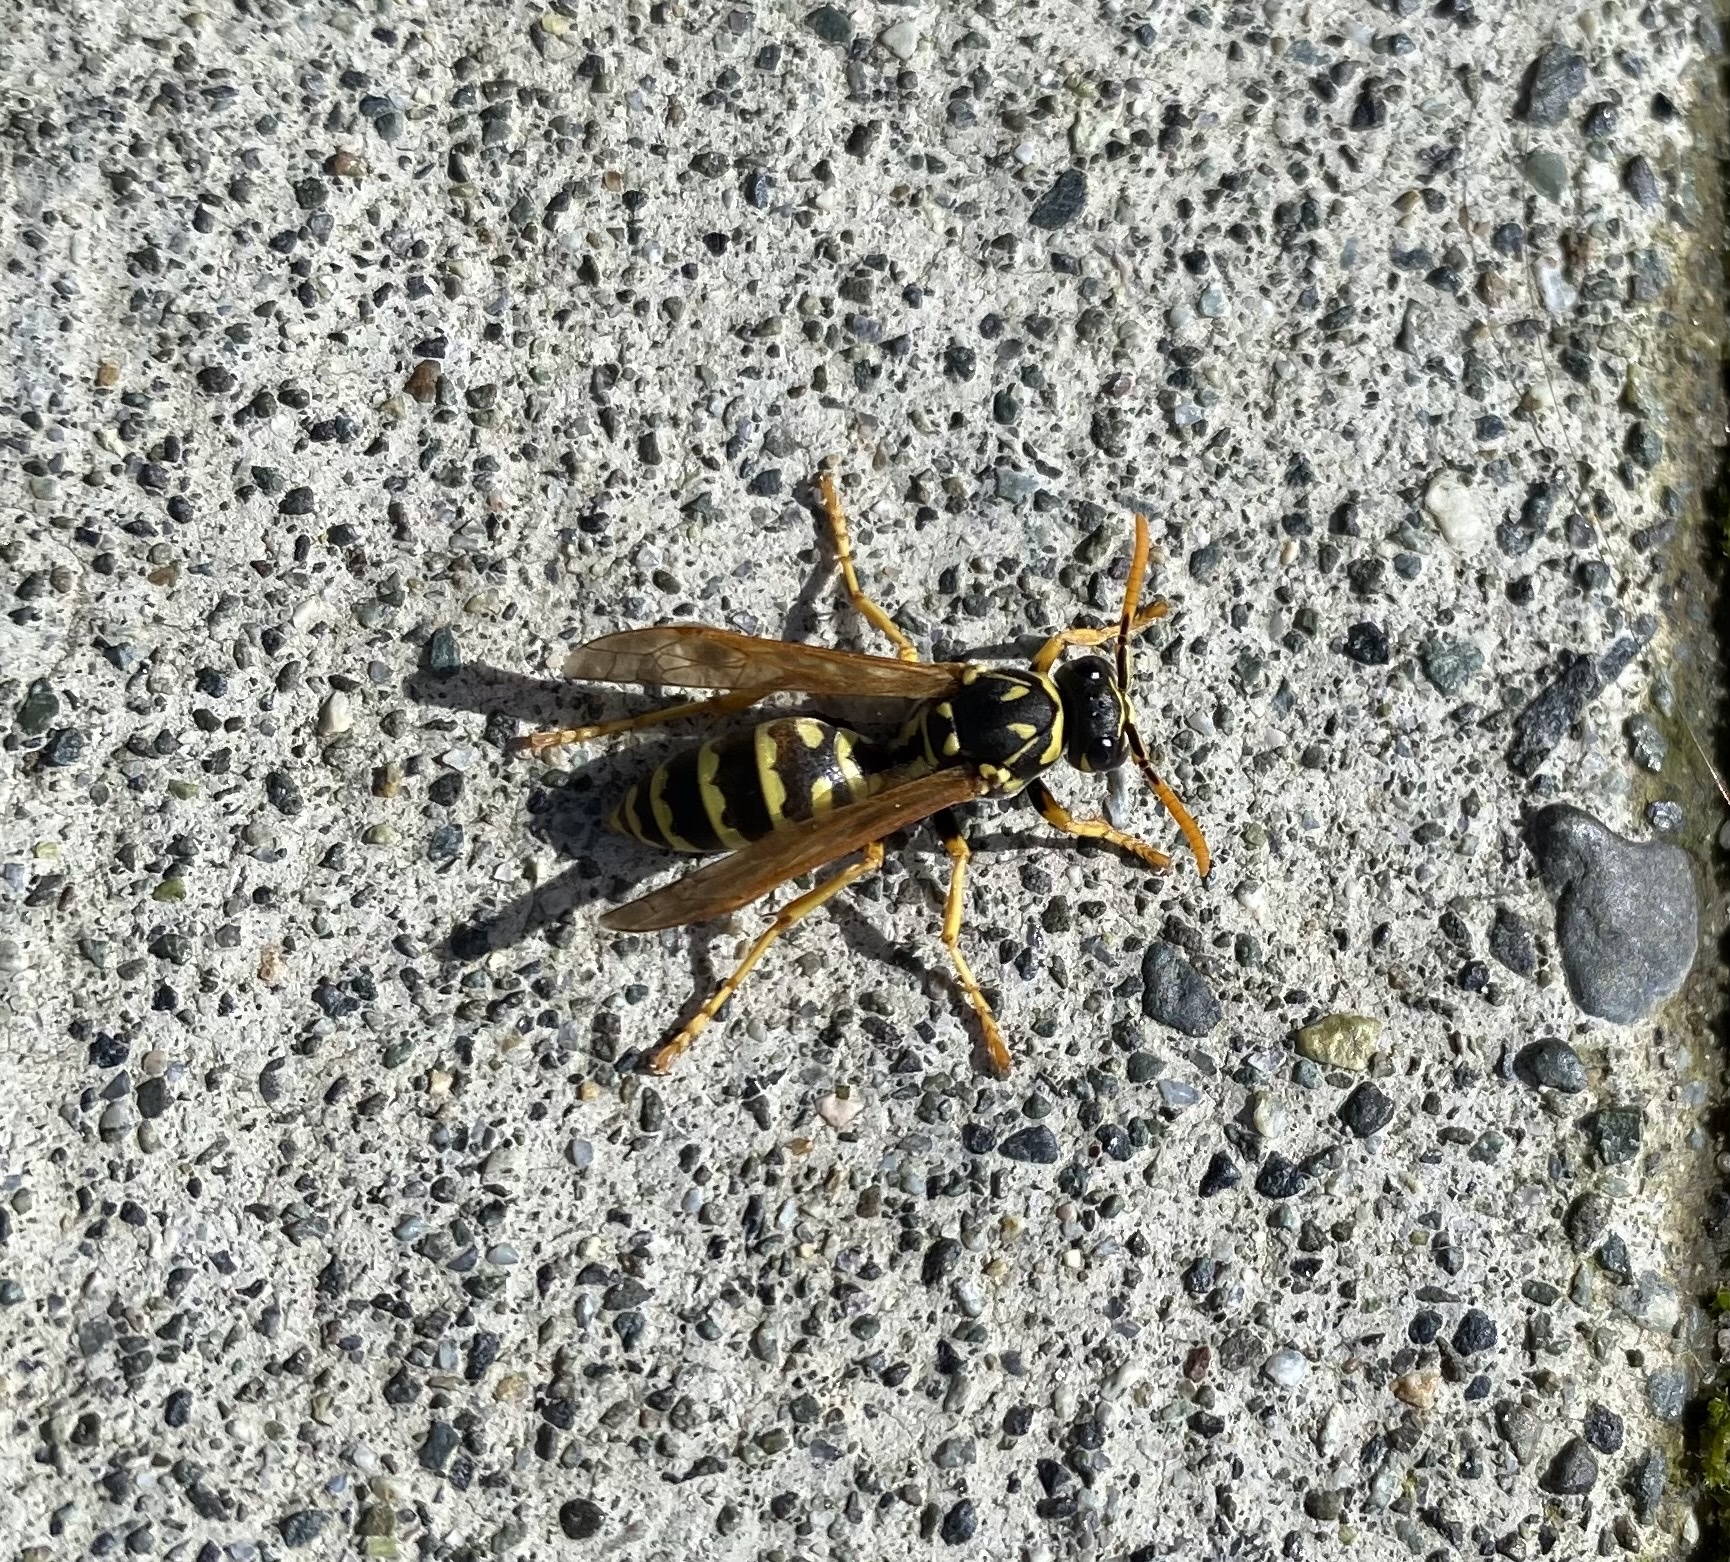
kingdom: Animalia
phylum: Arthropoda
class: Insecta
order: Hymenoptera
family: Eumenidae
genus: Polistes
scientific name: Polistes dominula
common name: Paper wasp
